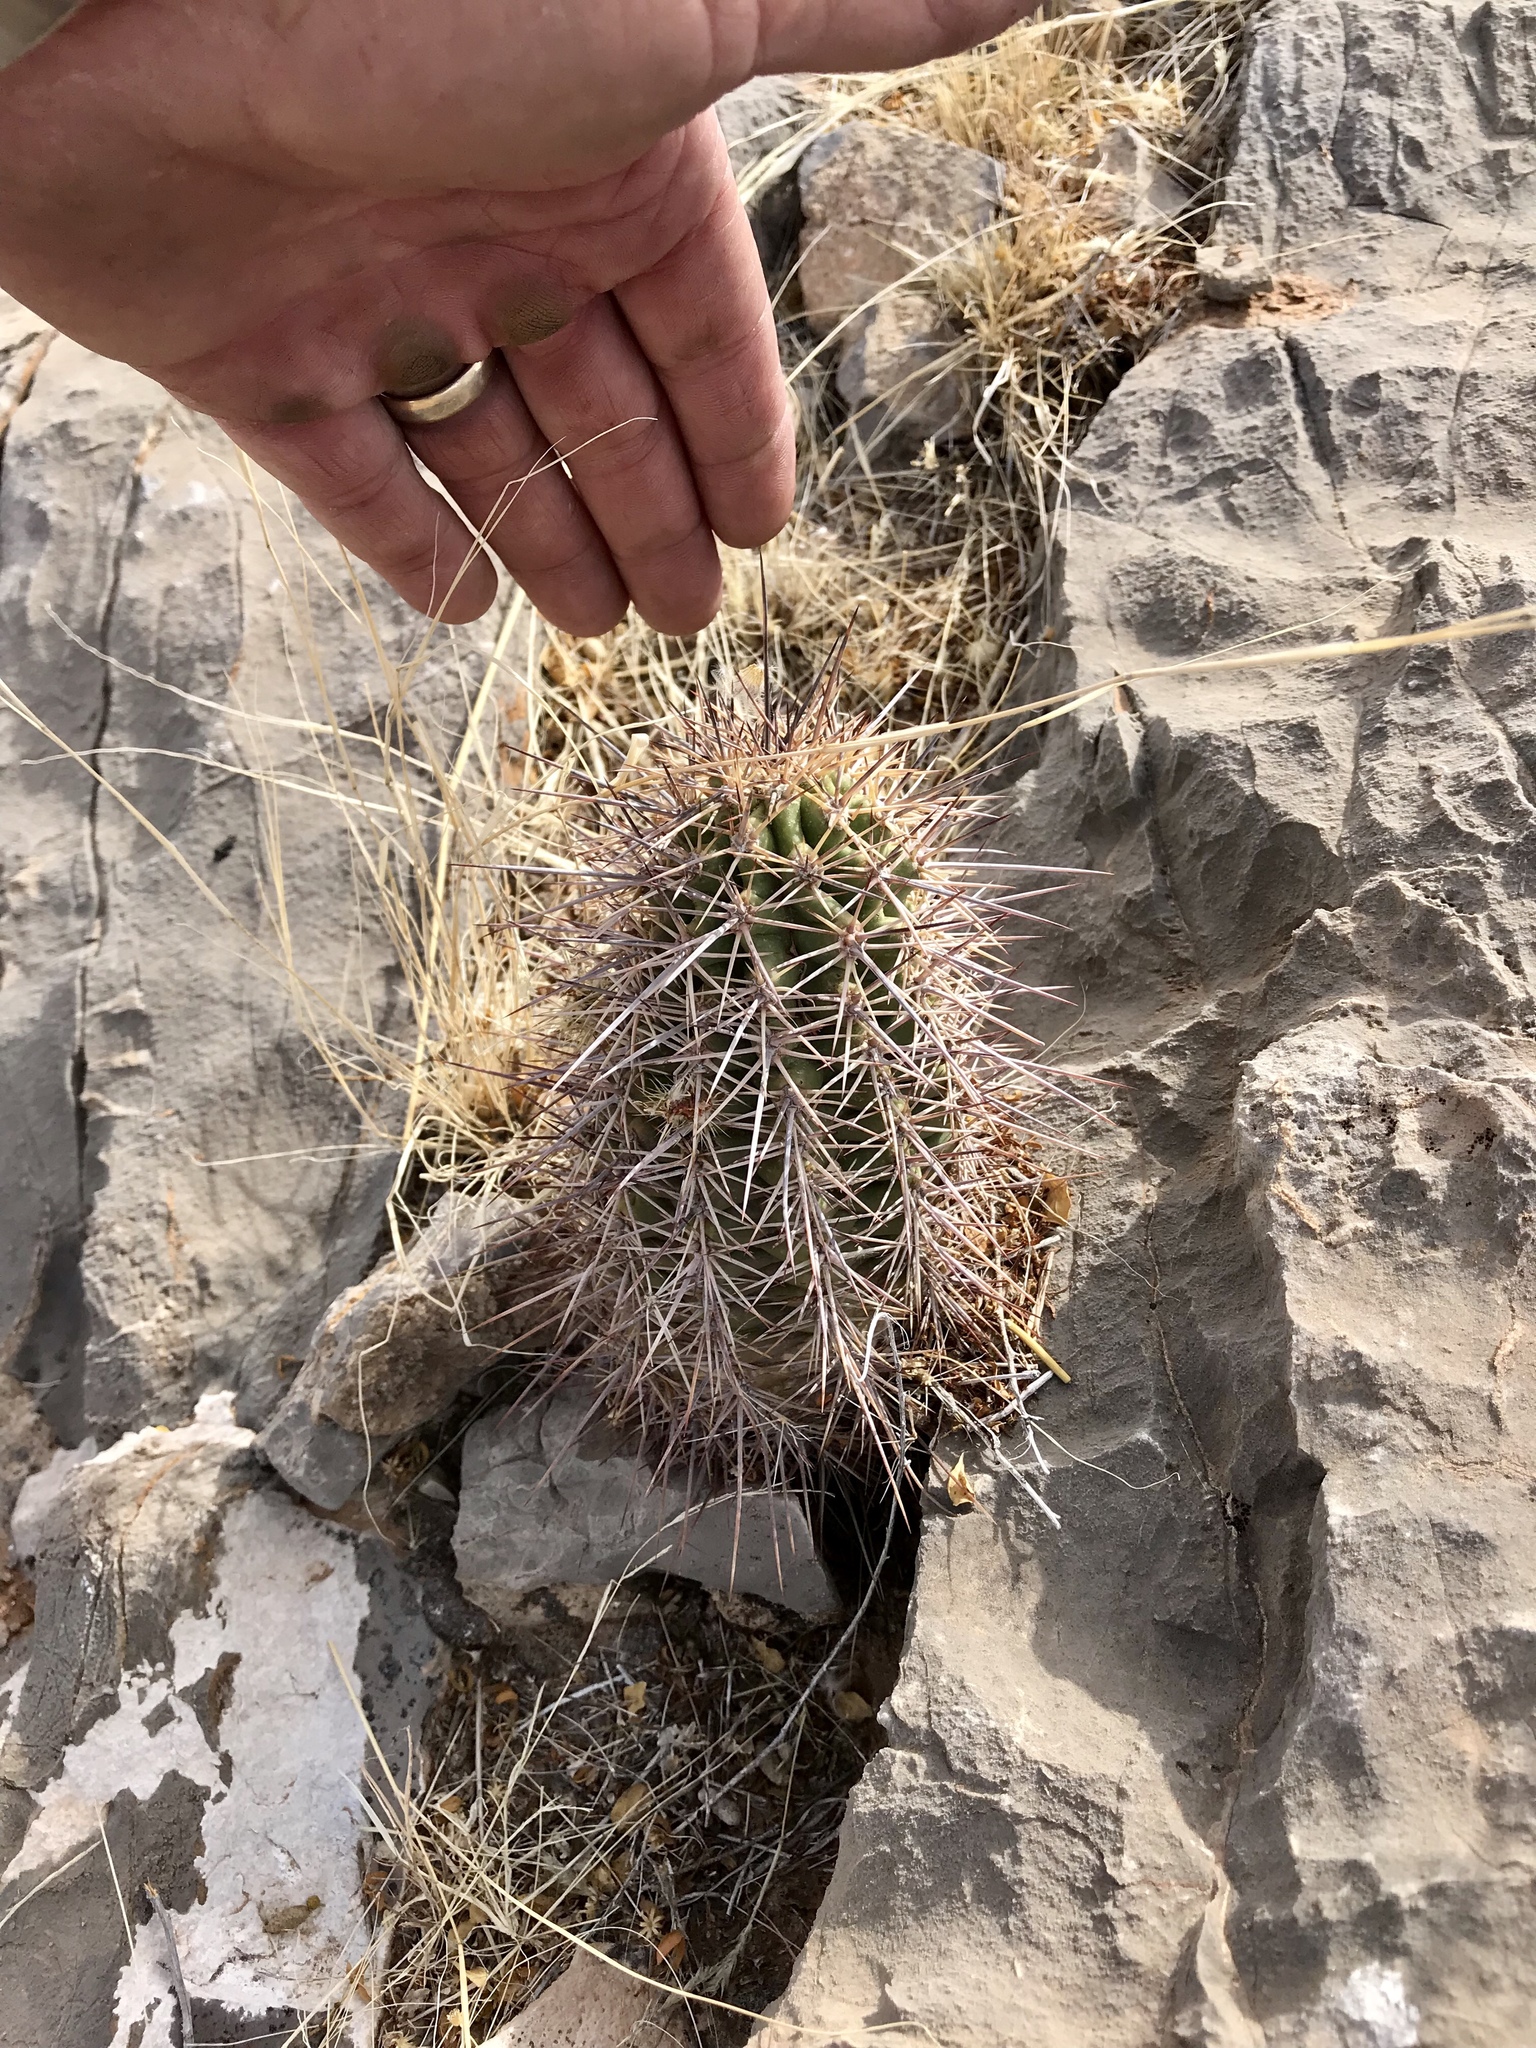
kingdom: Plantae
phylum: Tracheophyta
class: Magnoliopsida
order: Caryophyllales
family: Cactaceae
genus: Echinocereus
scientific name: Echinocereus coccineus
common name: Scarlet hedgehog cactus
